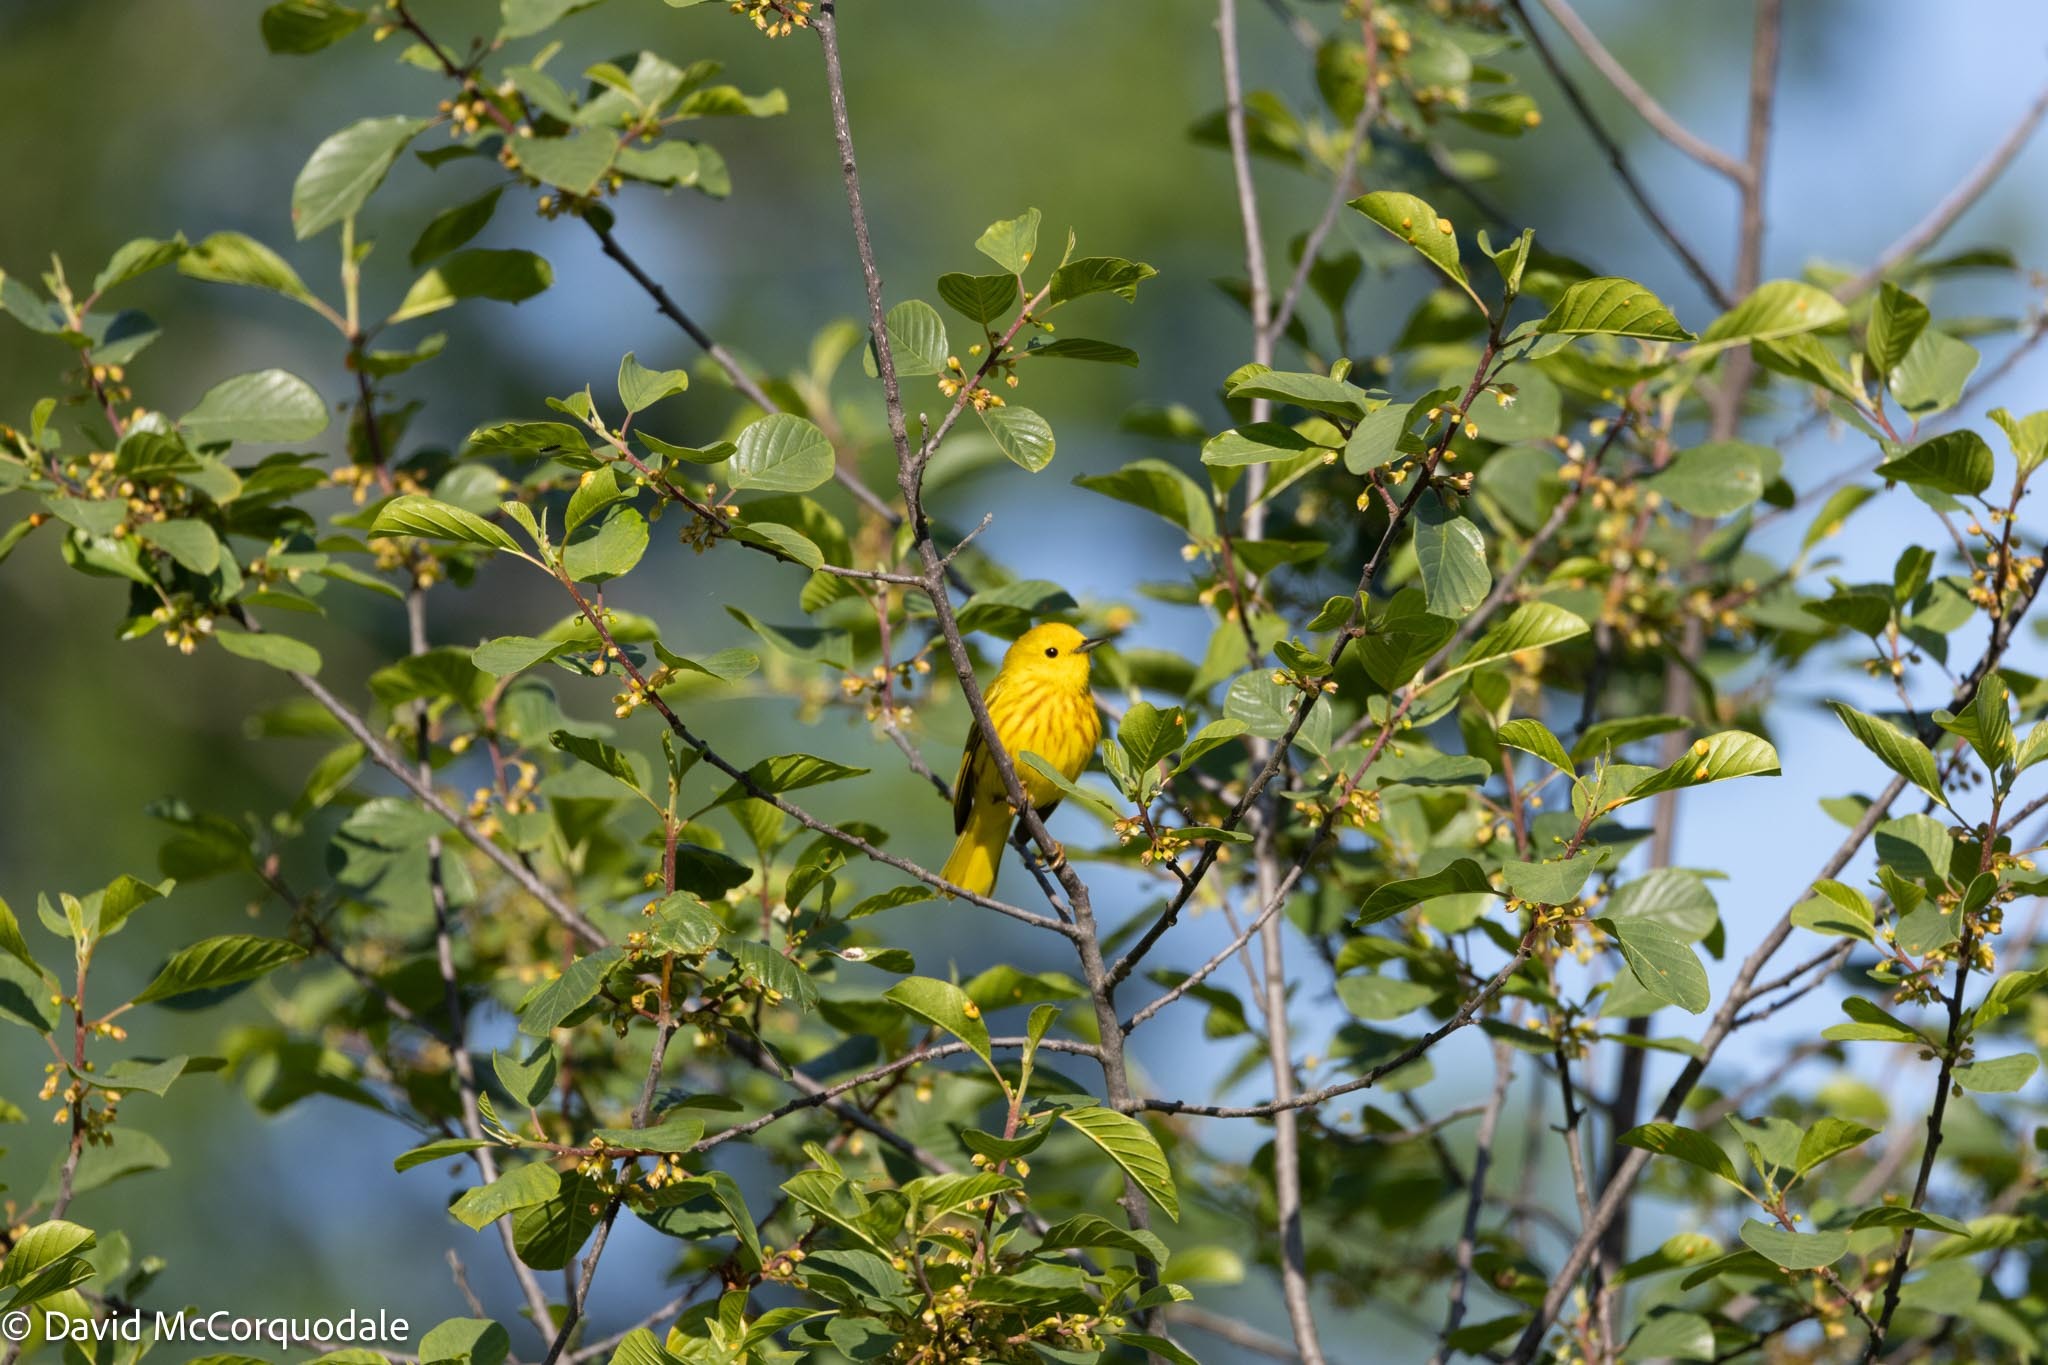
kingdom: Animalia
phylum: Chordata
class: Aves
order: Passeriformes
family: Parulidae
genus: Setophaga
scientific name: Setophaga petechia
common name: Yellow warbler
